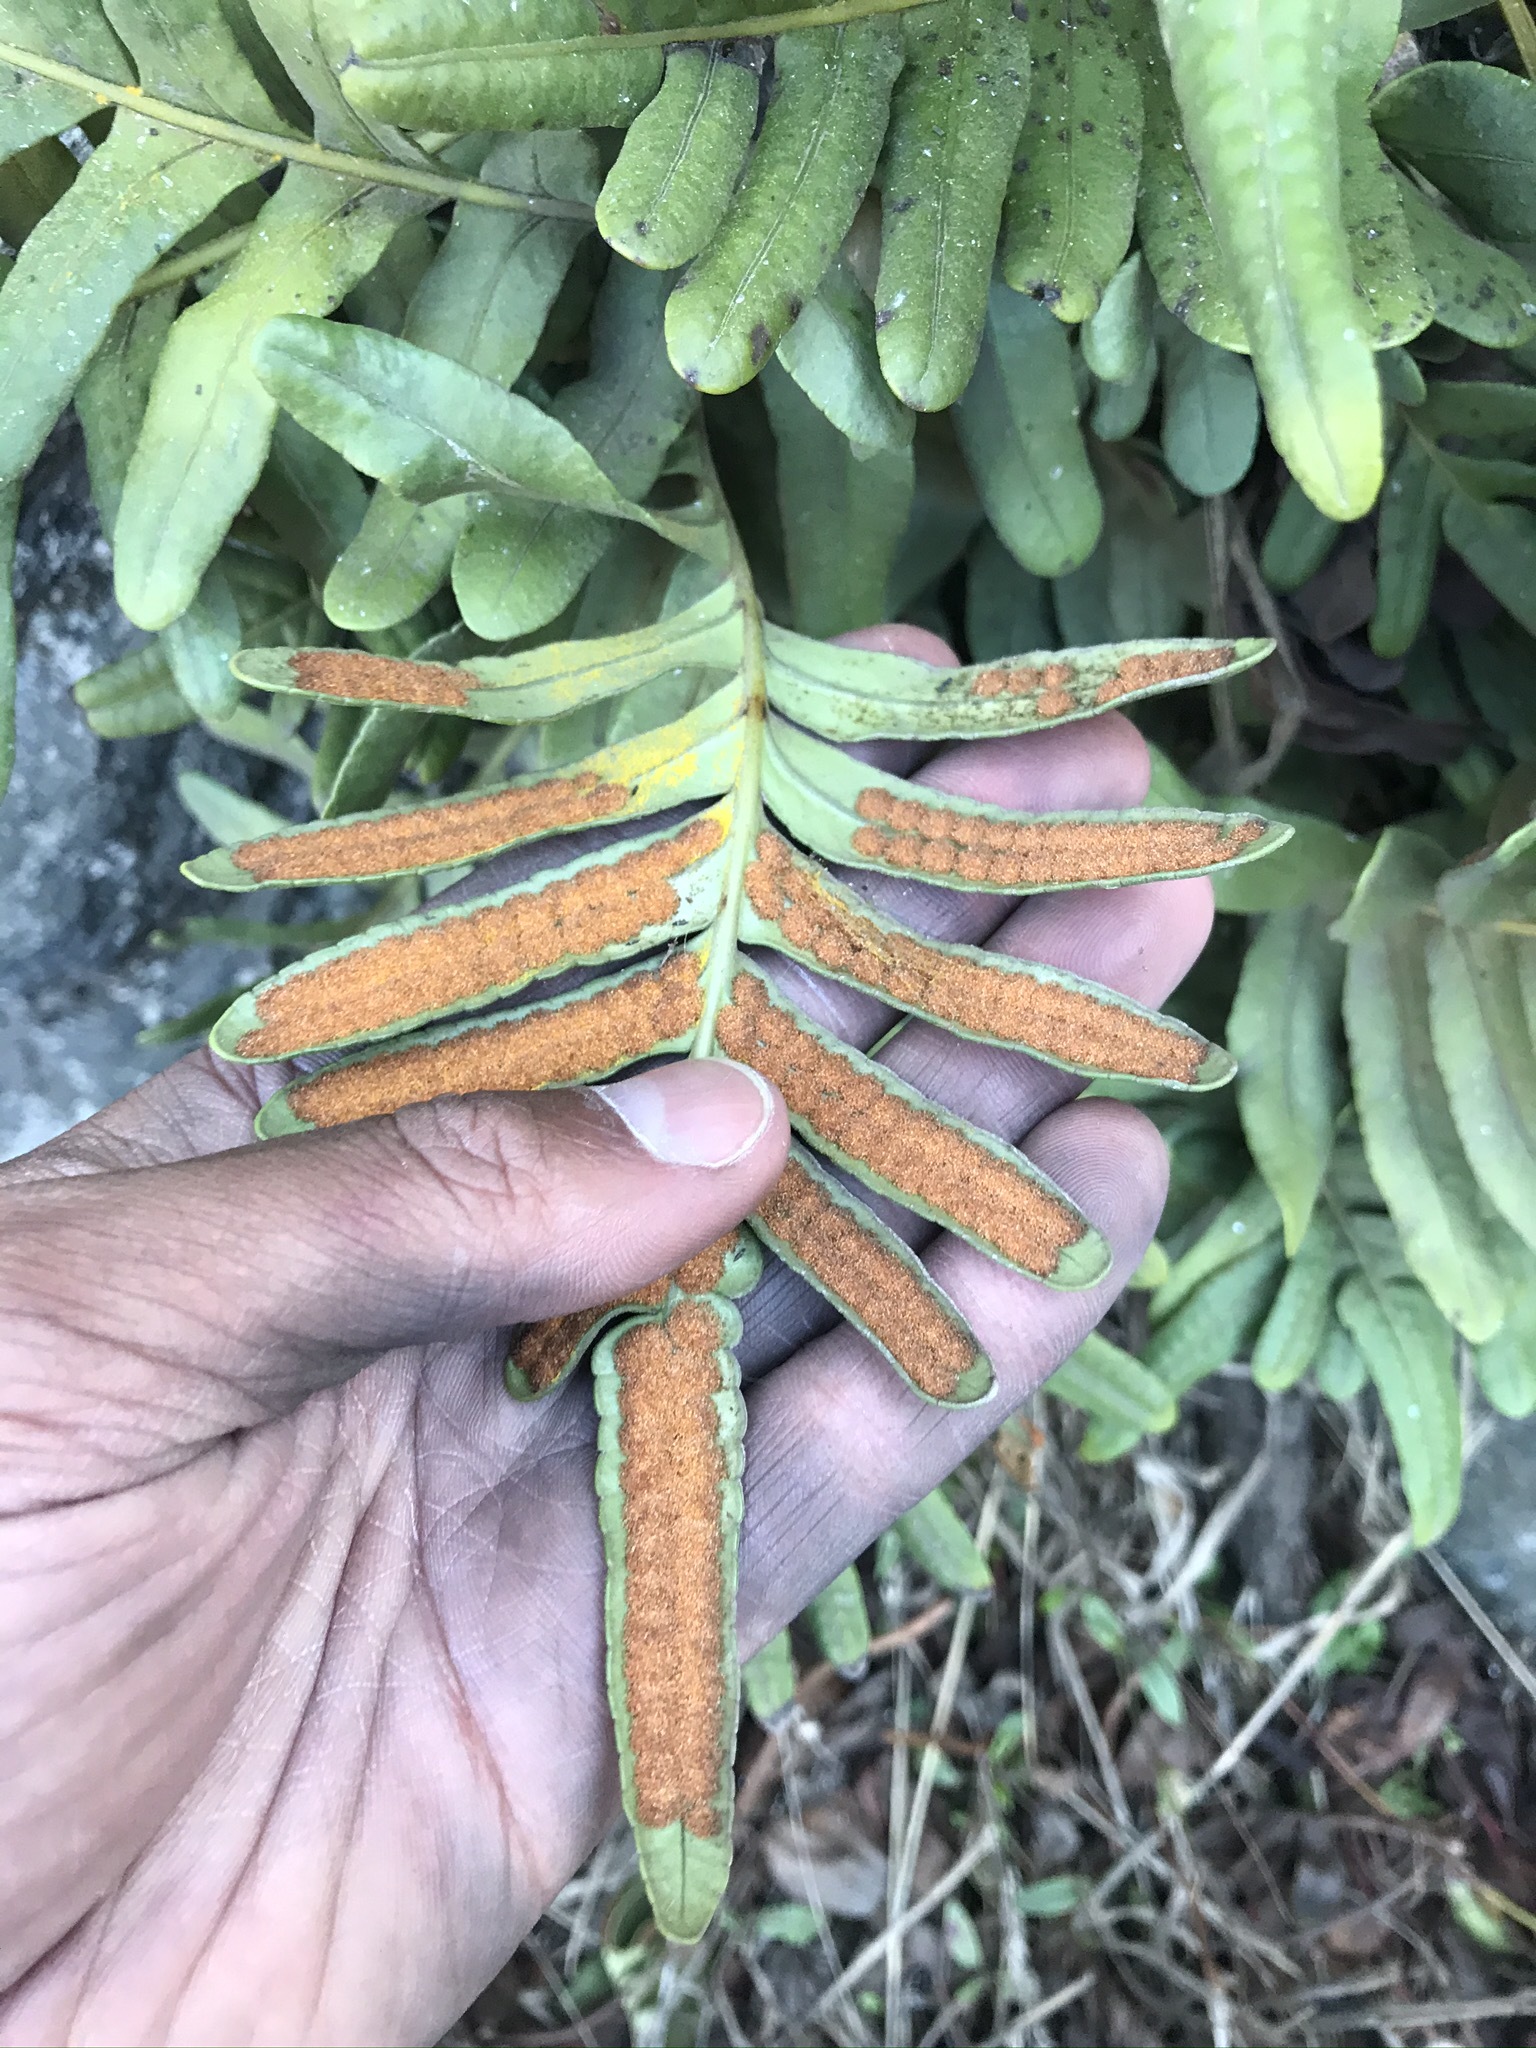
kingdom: Plantae
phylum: Tracheophyta
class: Polypodiopsida
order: Polypodiales
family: Polypodiaceae
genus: Polypodium
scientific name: Polypodium scouleri
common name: Scouler's polypody
